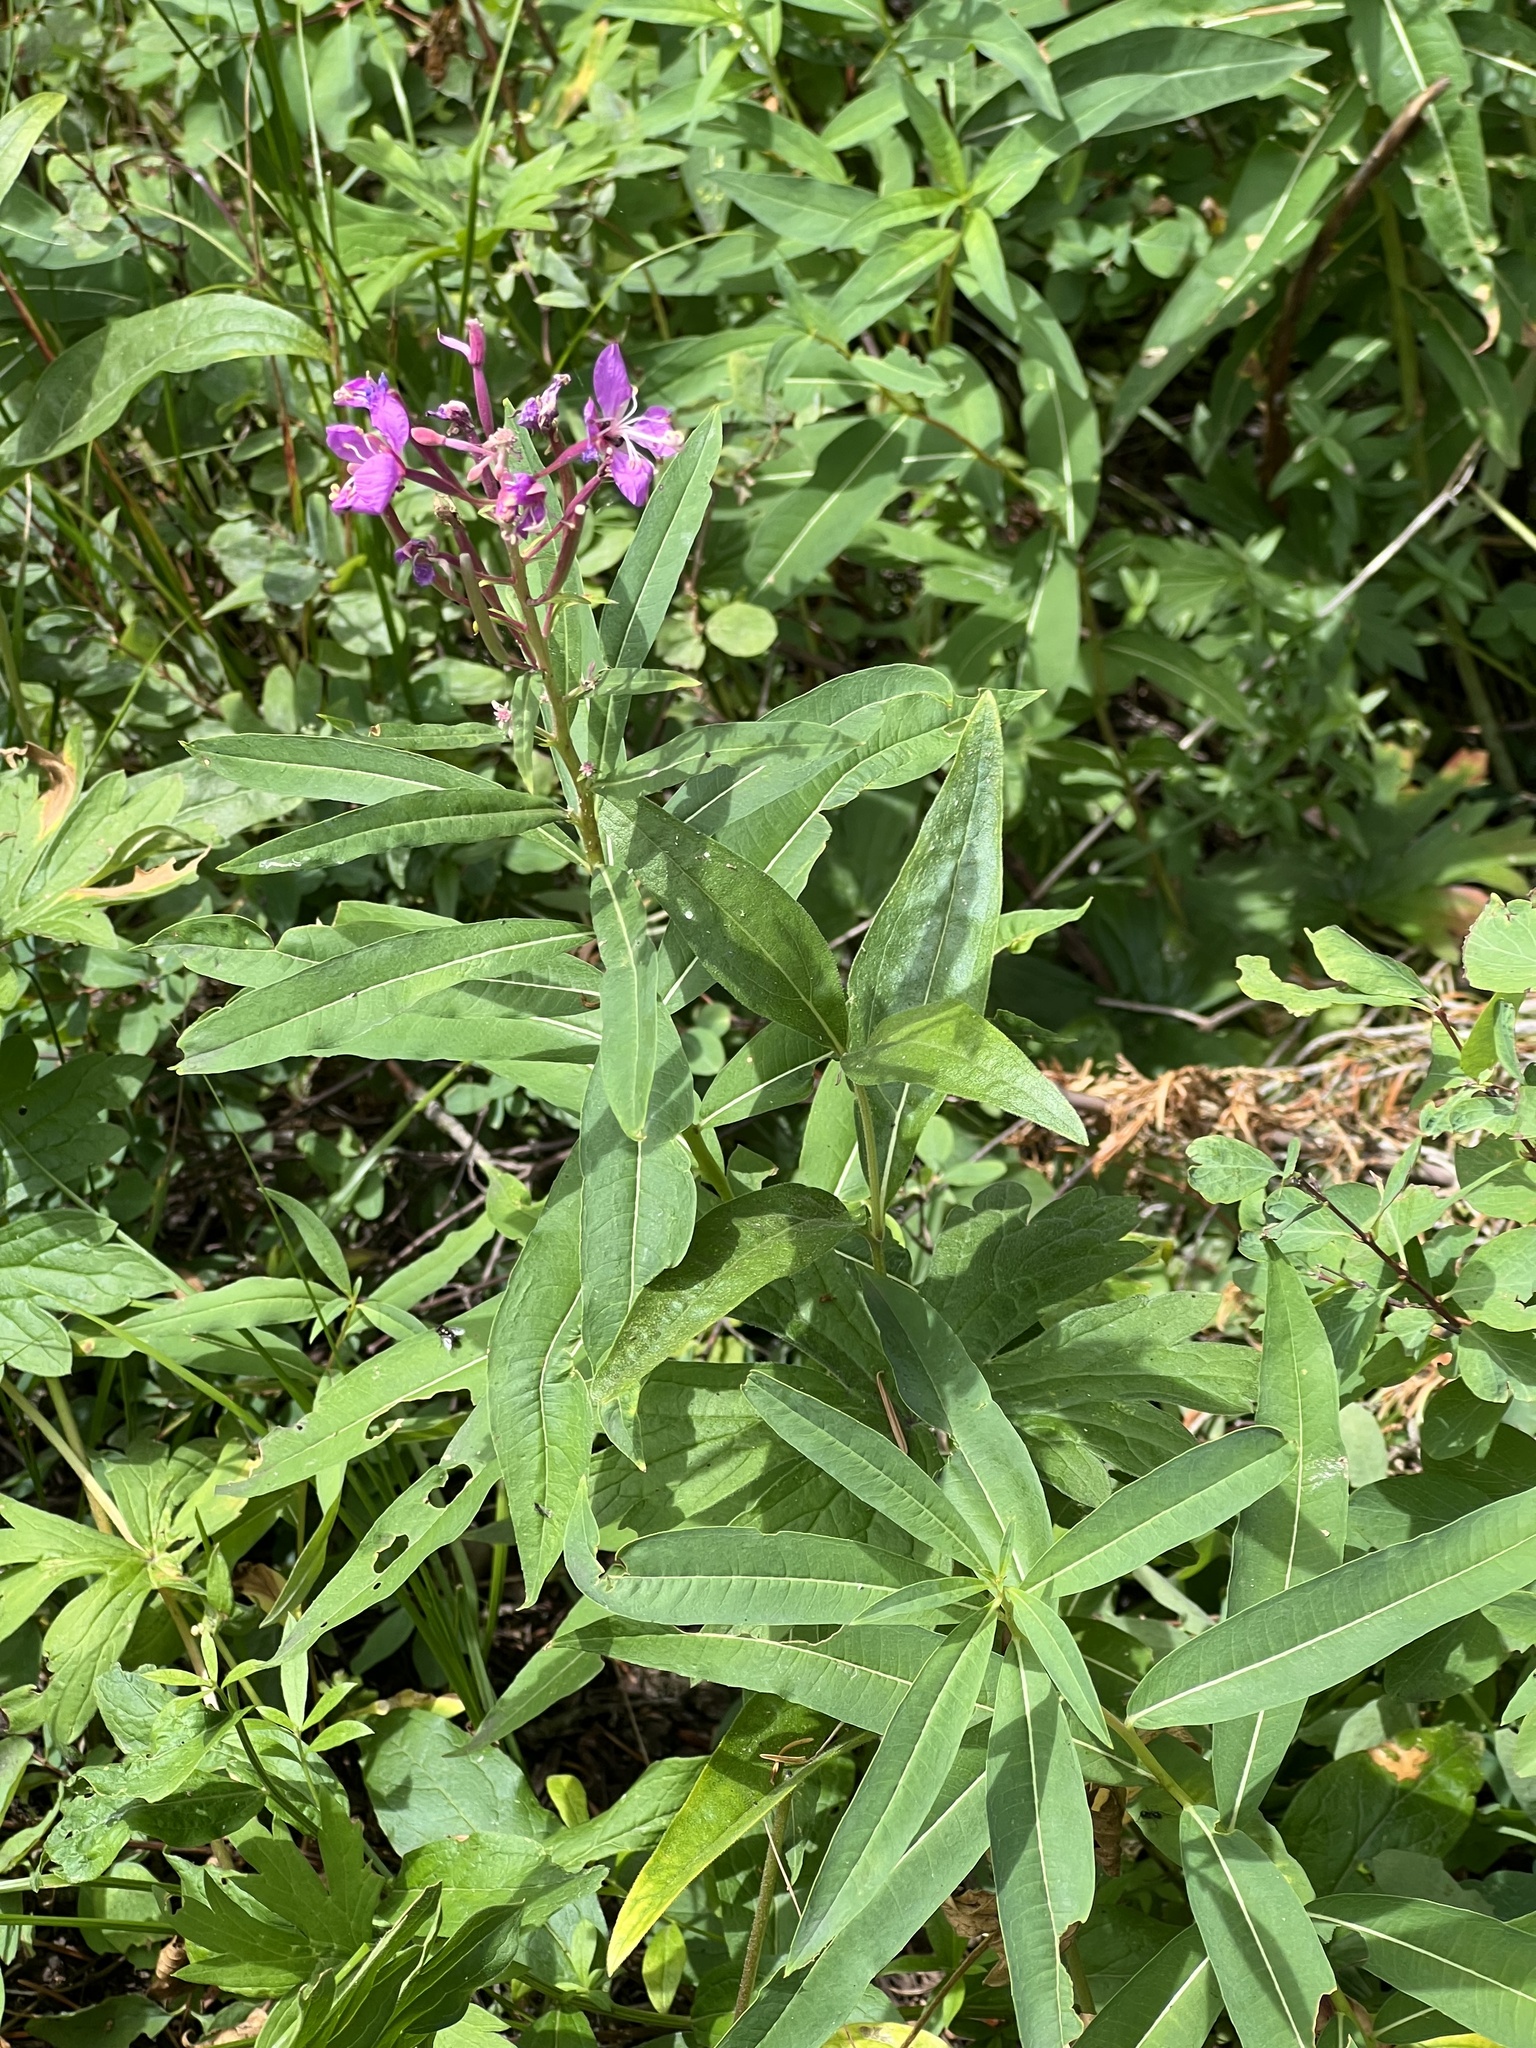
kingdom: Plantae
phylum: Tracheophyta
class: Magnoliopsida
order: Myrtales
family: Onagraceae
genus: Chamaenerion
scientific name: Chamaenerion angustifolium
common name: Fireweed
